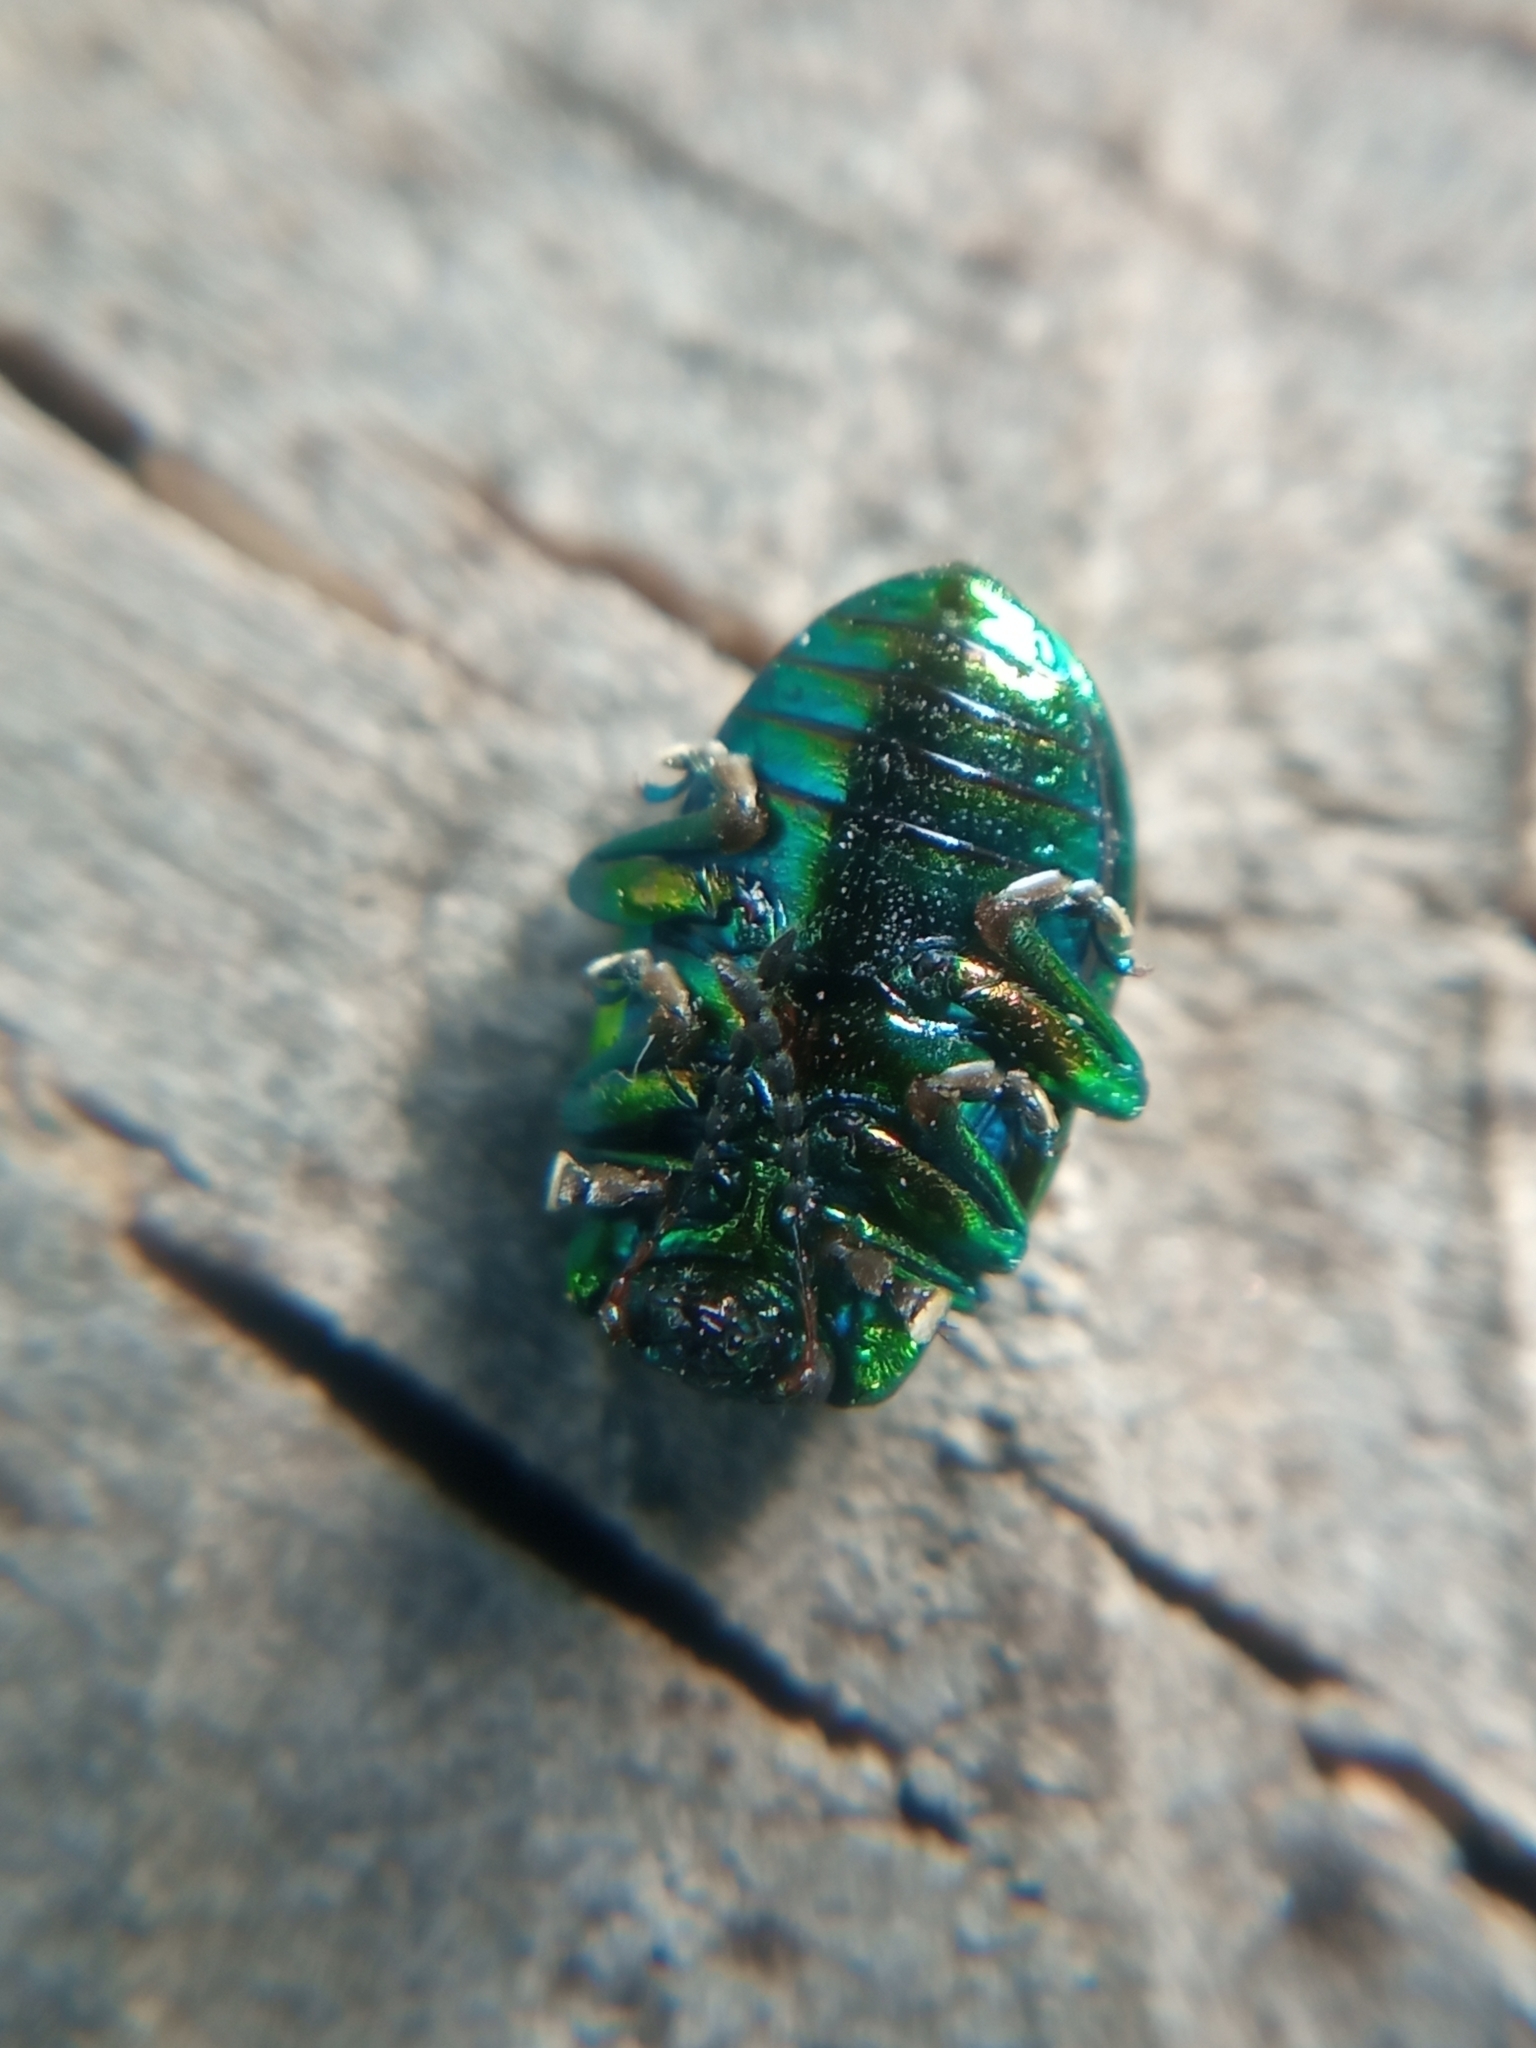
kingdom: Animalia
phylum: Arthropoda
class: Insecta
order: Coleoptera
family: Chrysomelidae
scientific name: Chrysomelidae
